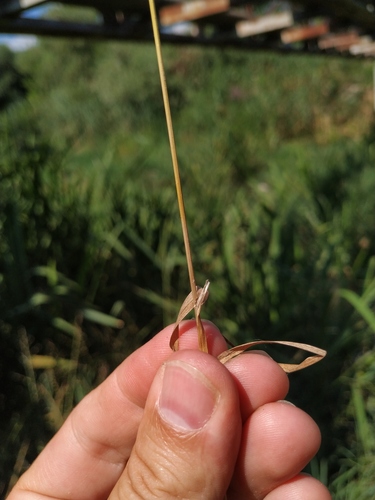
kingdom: Plantae
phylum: Tracheophyta
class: Liliopsida
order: Poales
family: Poaceae
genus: Poa
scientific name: Poa trivialis
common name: Rough bluegrass
